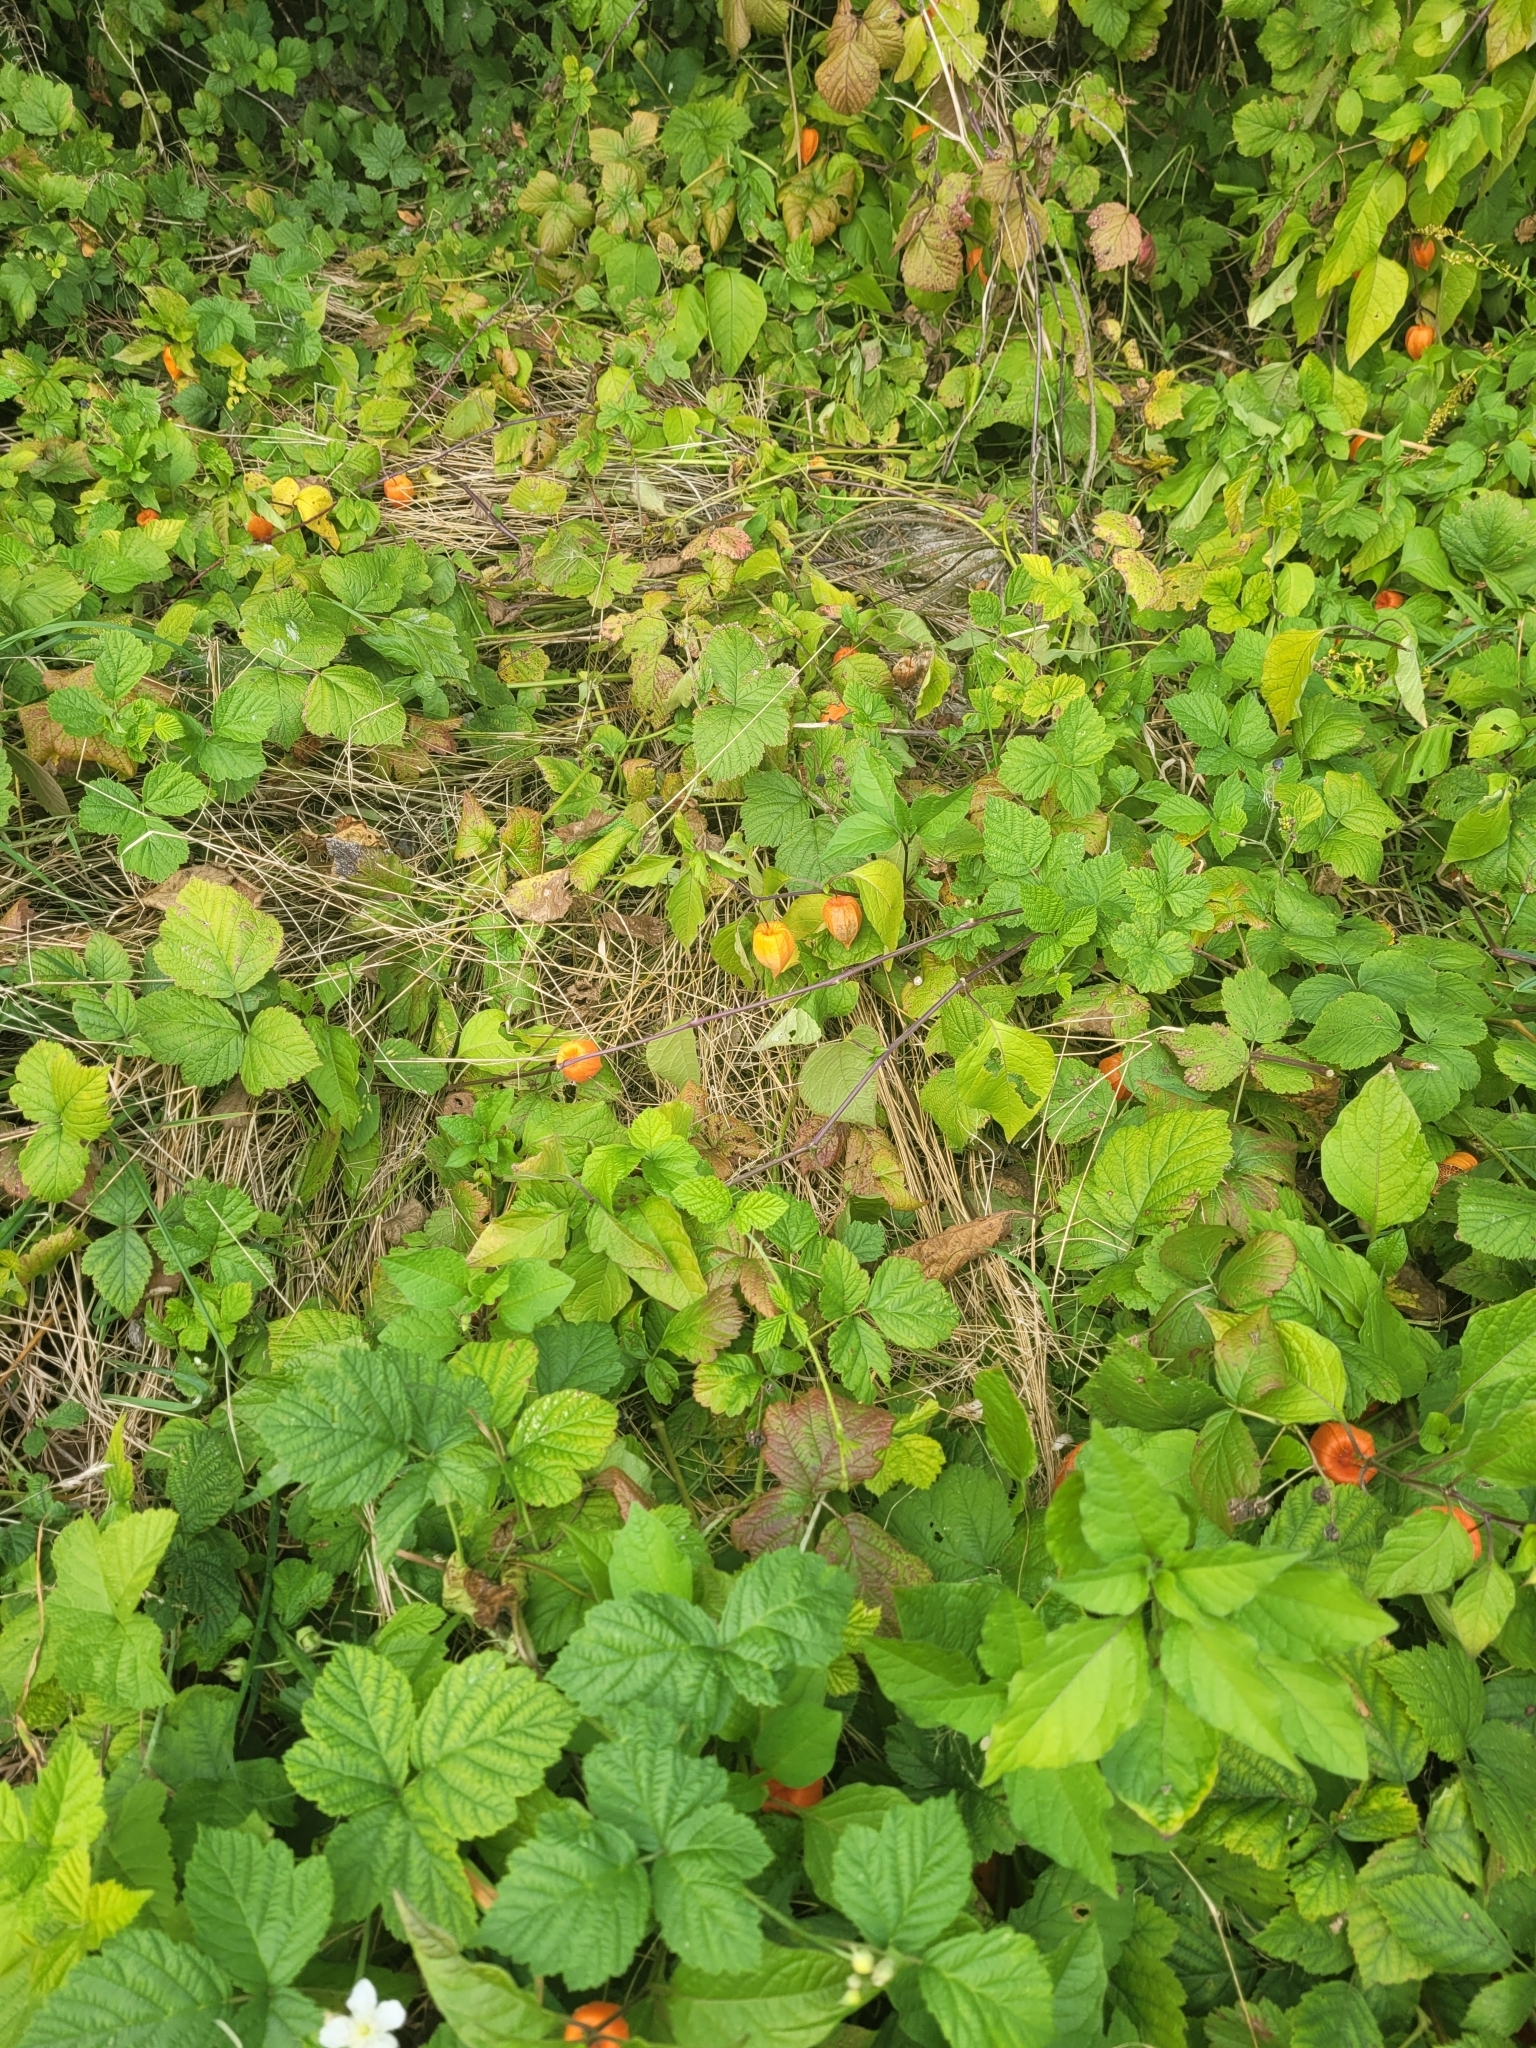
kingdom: Plantae
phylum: Tracheophyta
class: Magnoliopsida
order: Solanales
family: Solanaceae
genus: Alkekengi
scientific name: Alkekengi officinarum
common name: Japanese-lantern
